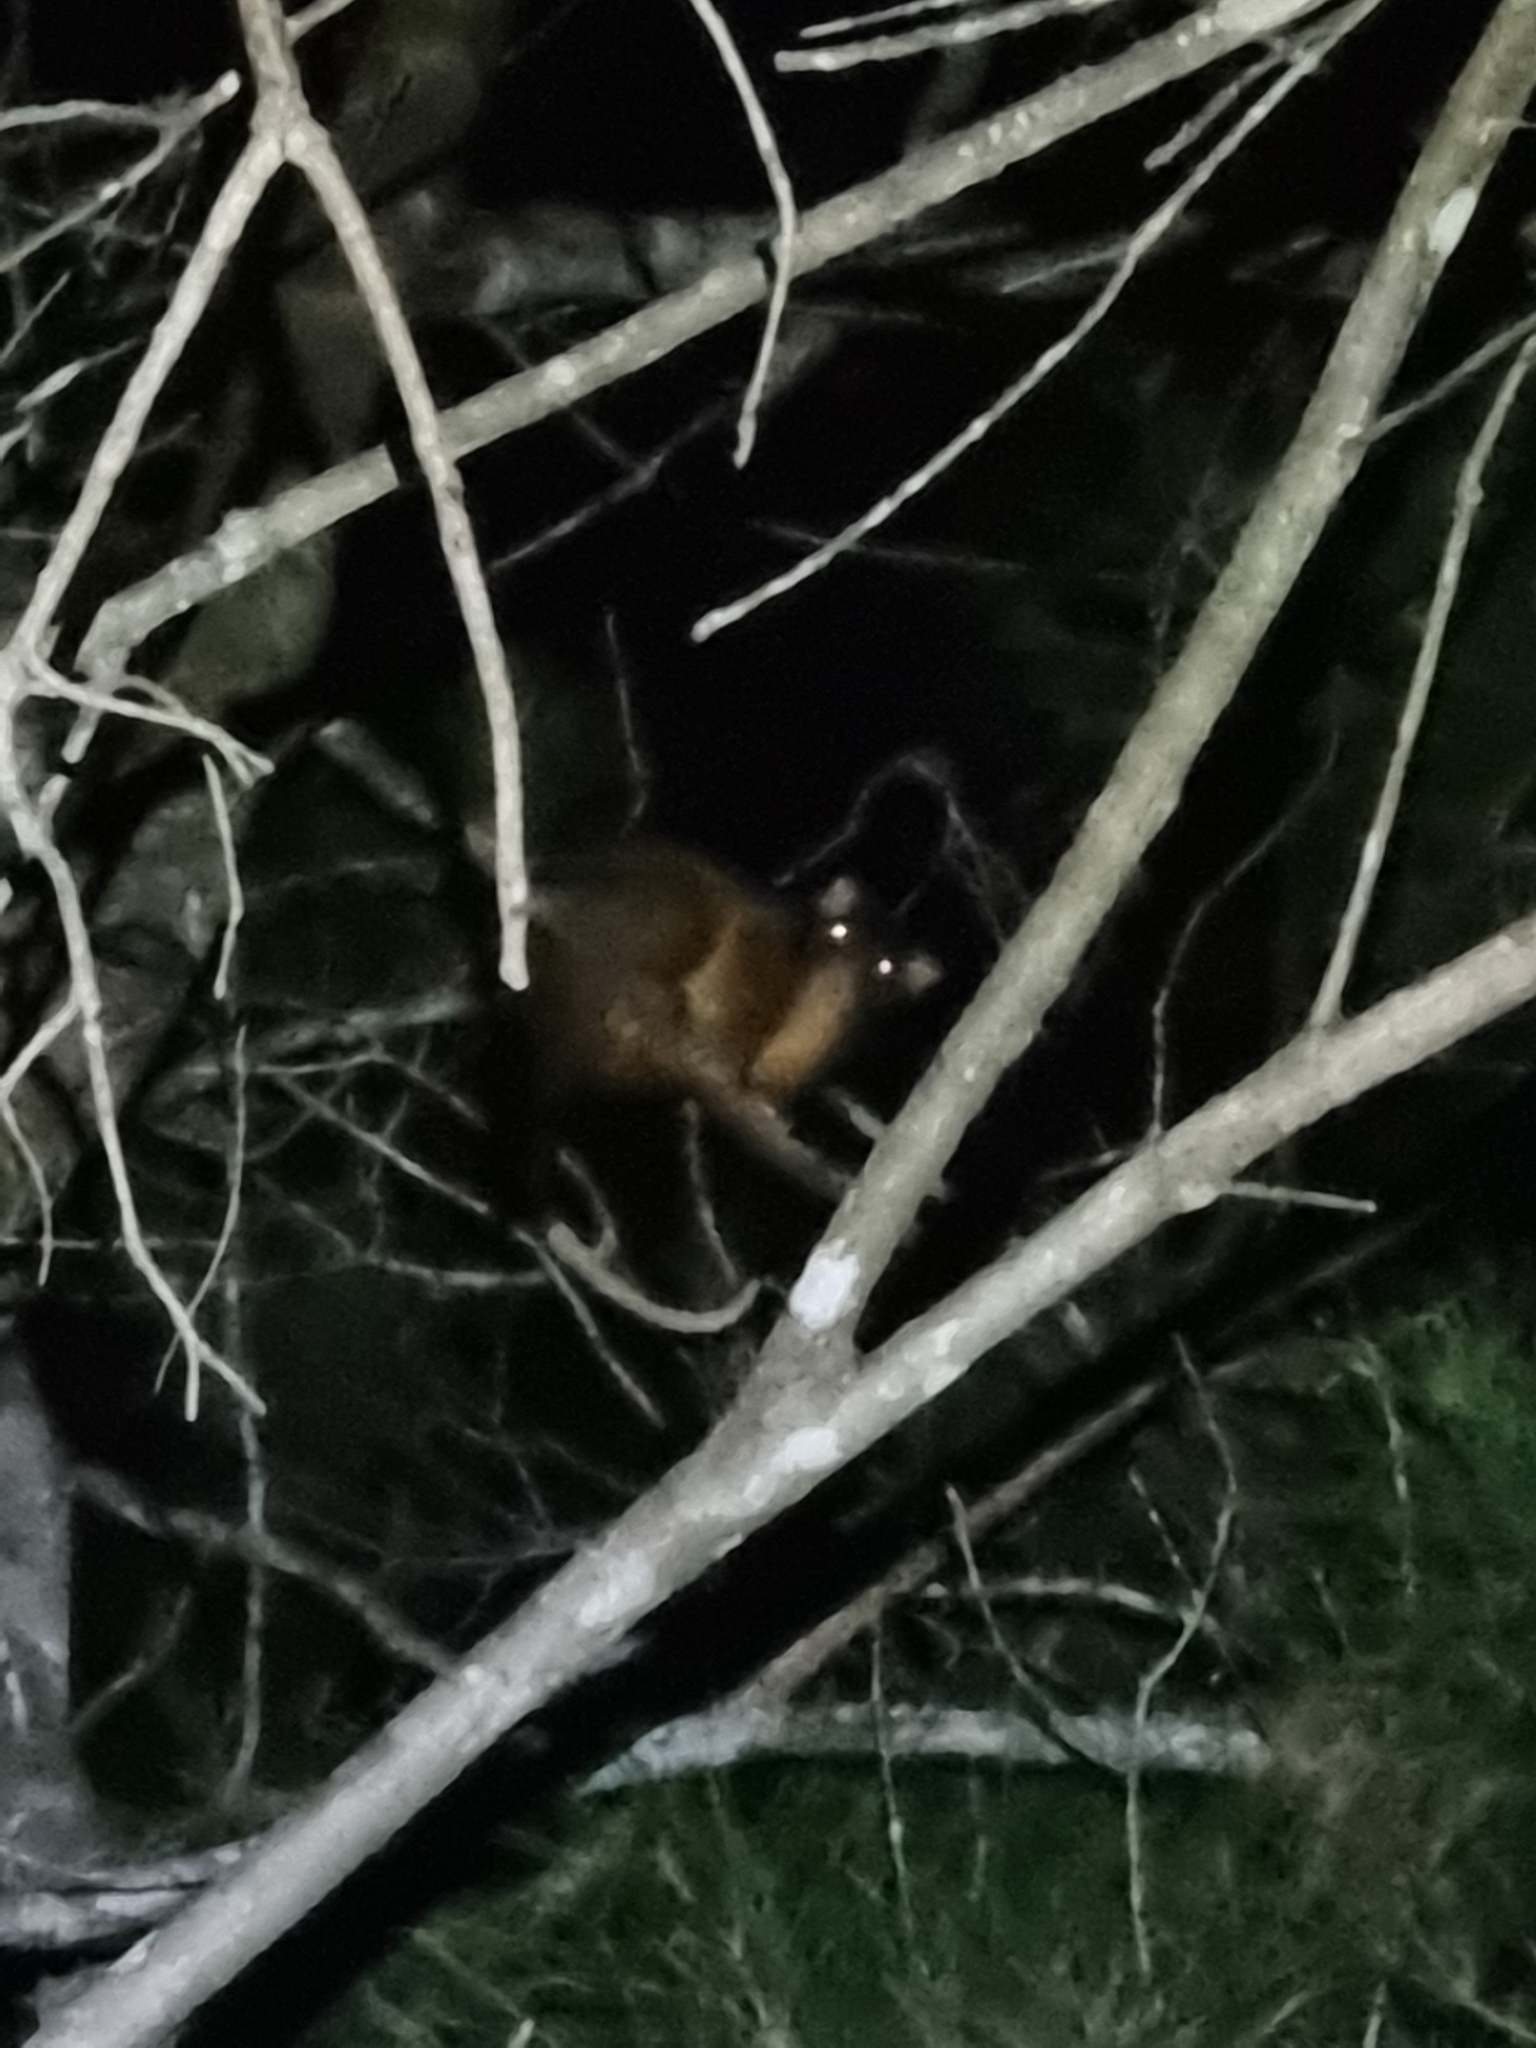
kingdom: Animalia
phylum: Chordata
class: Mammalia
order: Diprotodontia
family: Pseudocheiridae
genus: Pseudocheirus
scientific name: Pseudocheirus peregrinus
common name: Common ringtail possum
